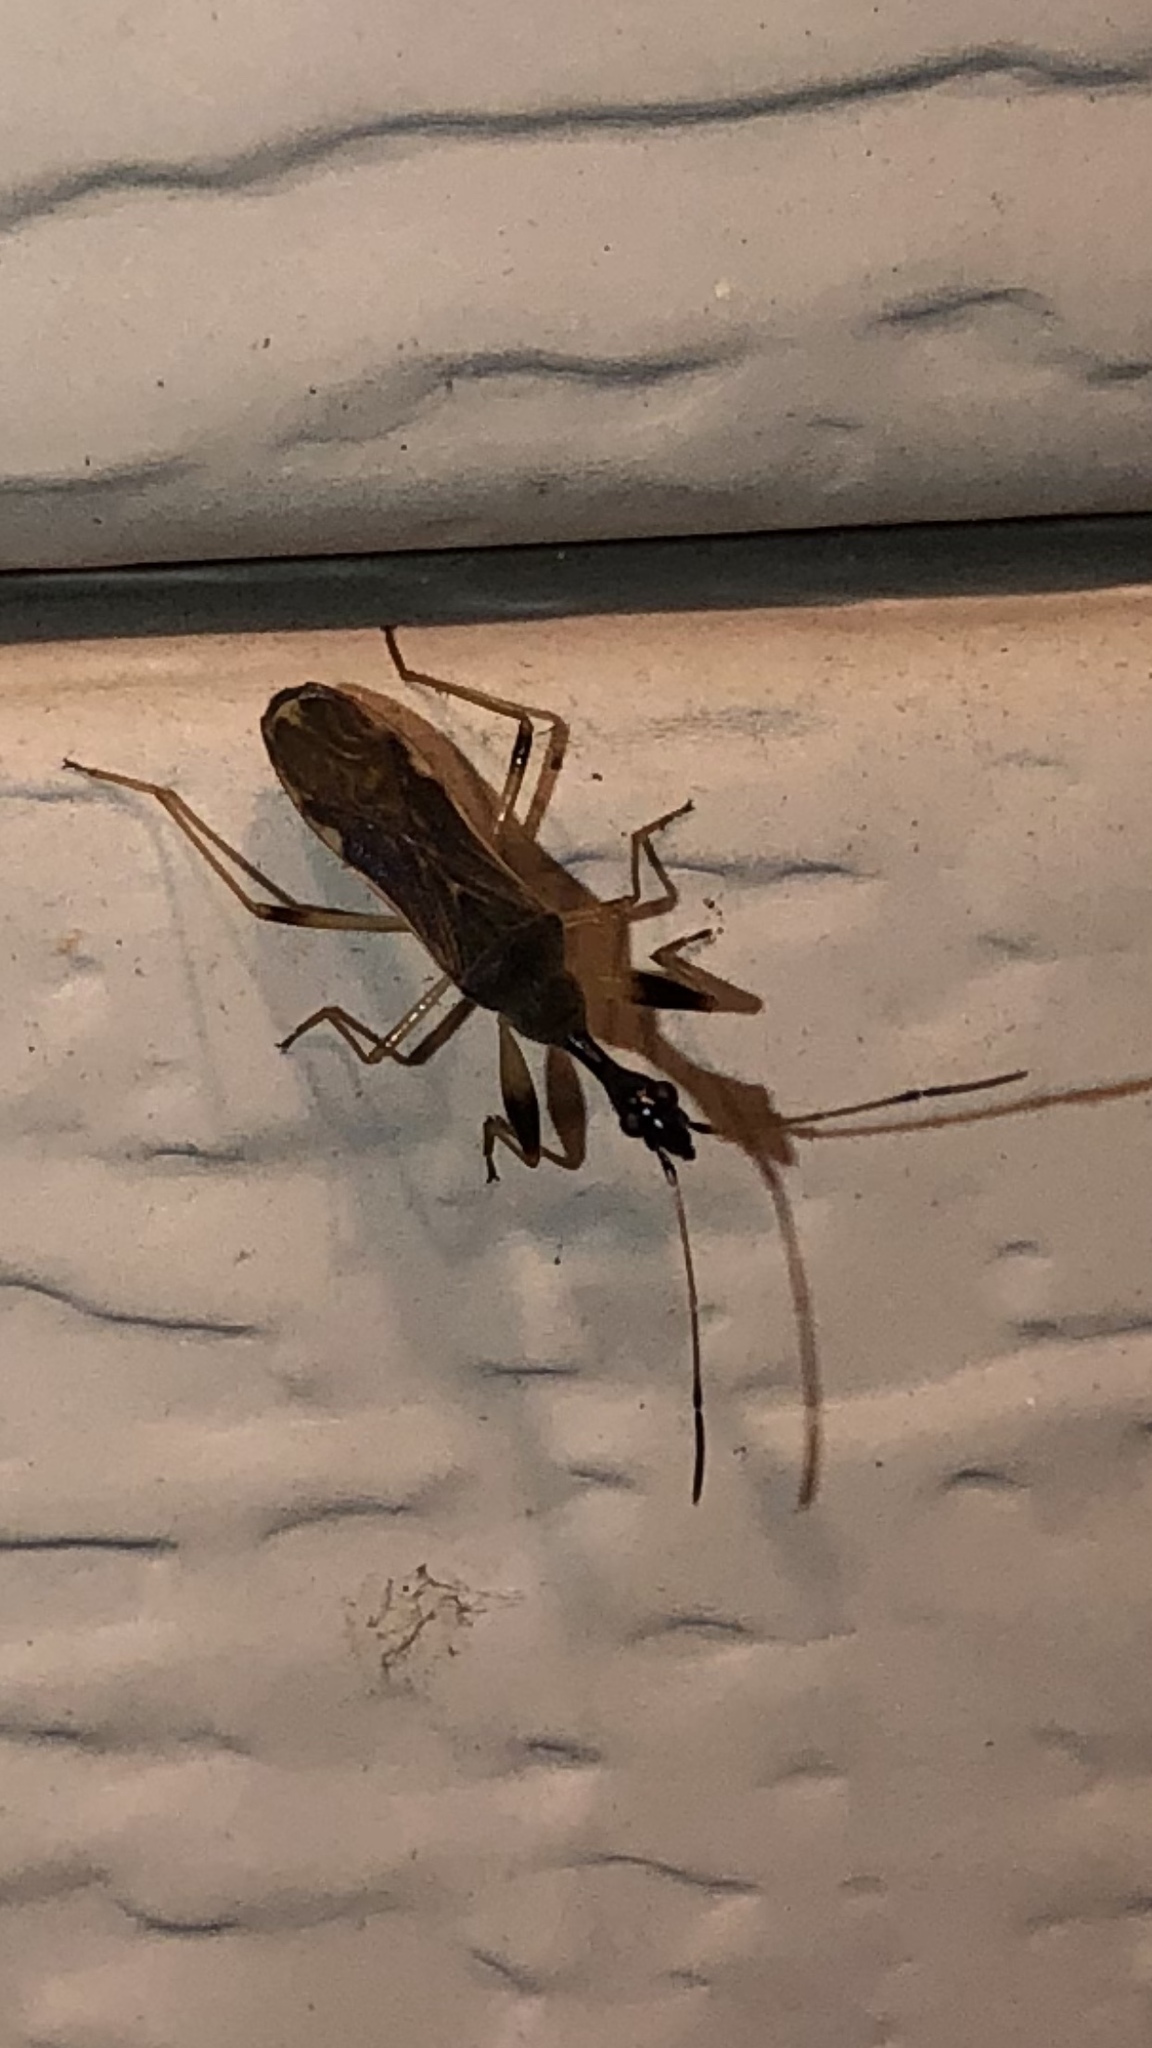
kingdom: Animalia
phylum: Arthropoda
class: Insecta
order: Hemiptera
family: Rhyparochromidae
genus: Myodocha
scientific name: Myodocha serripes
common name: Long-necked seed bug
